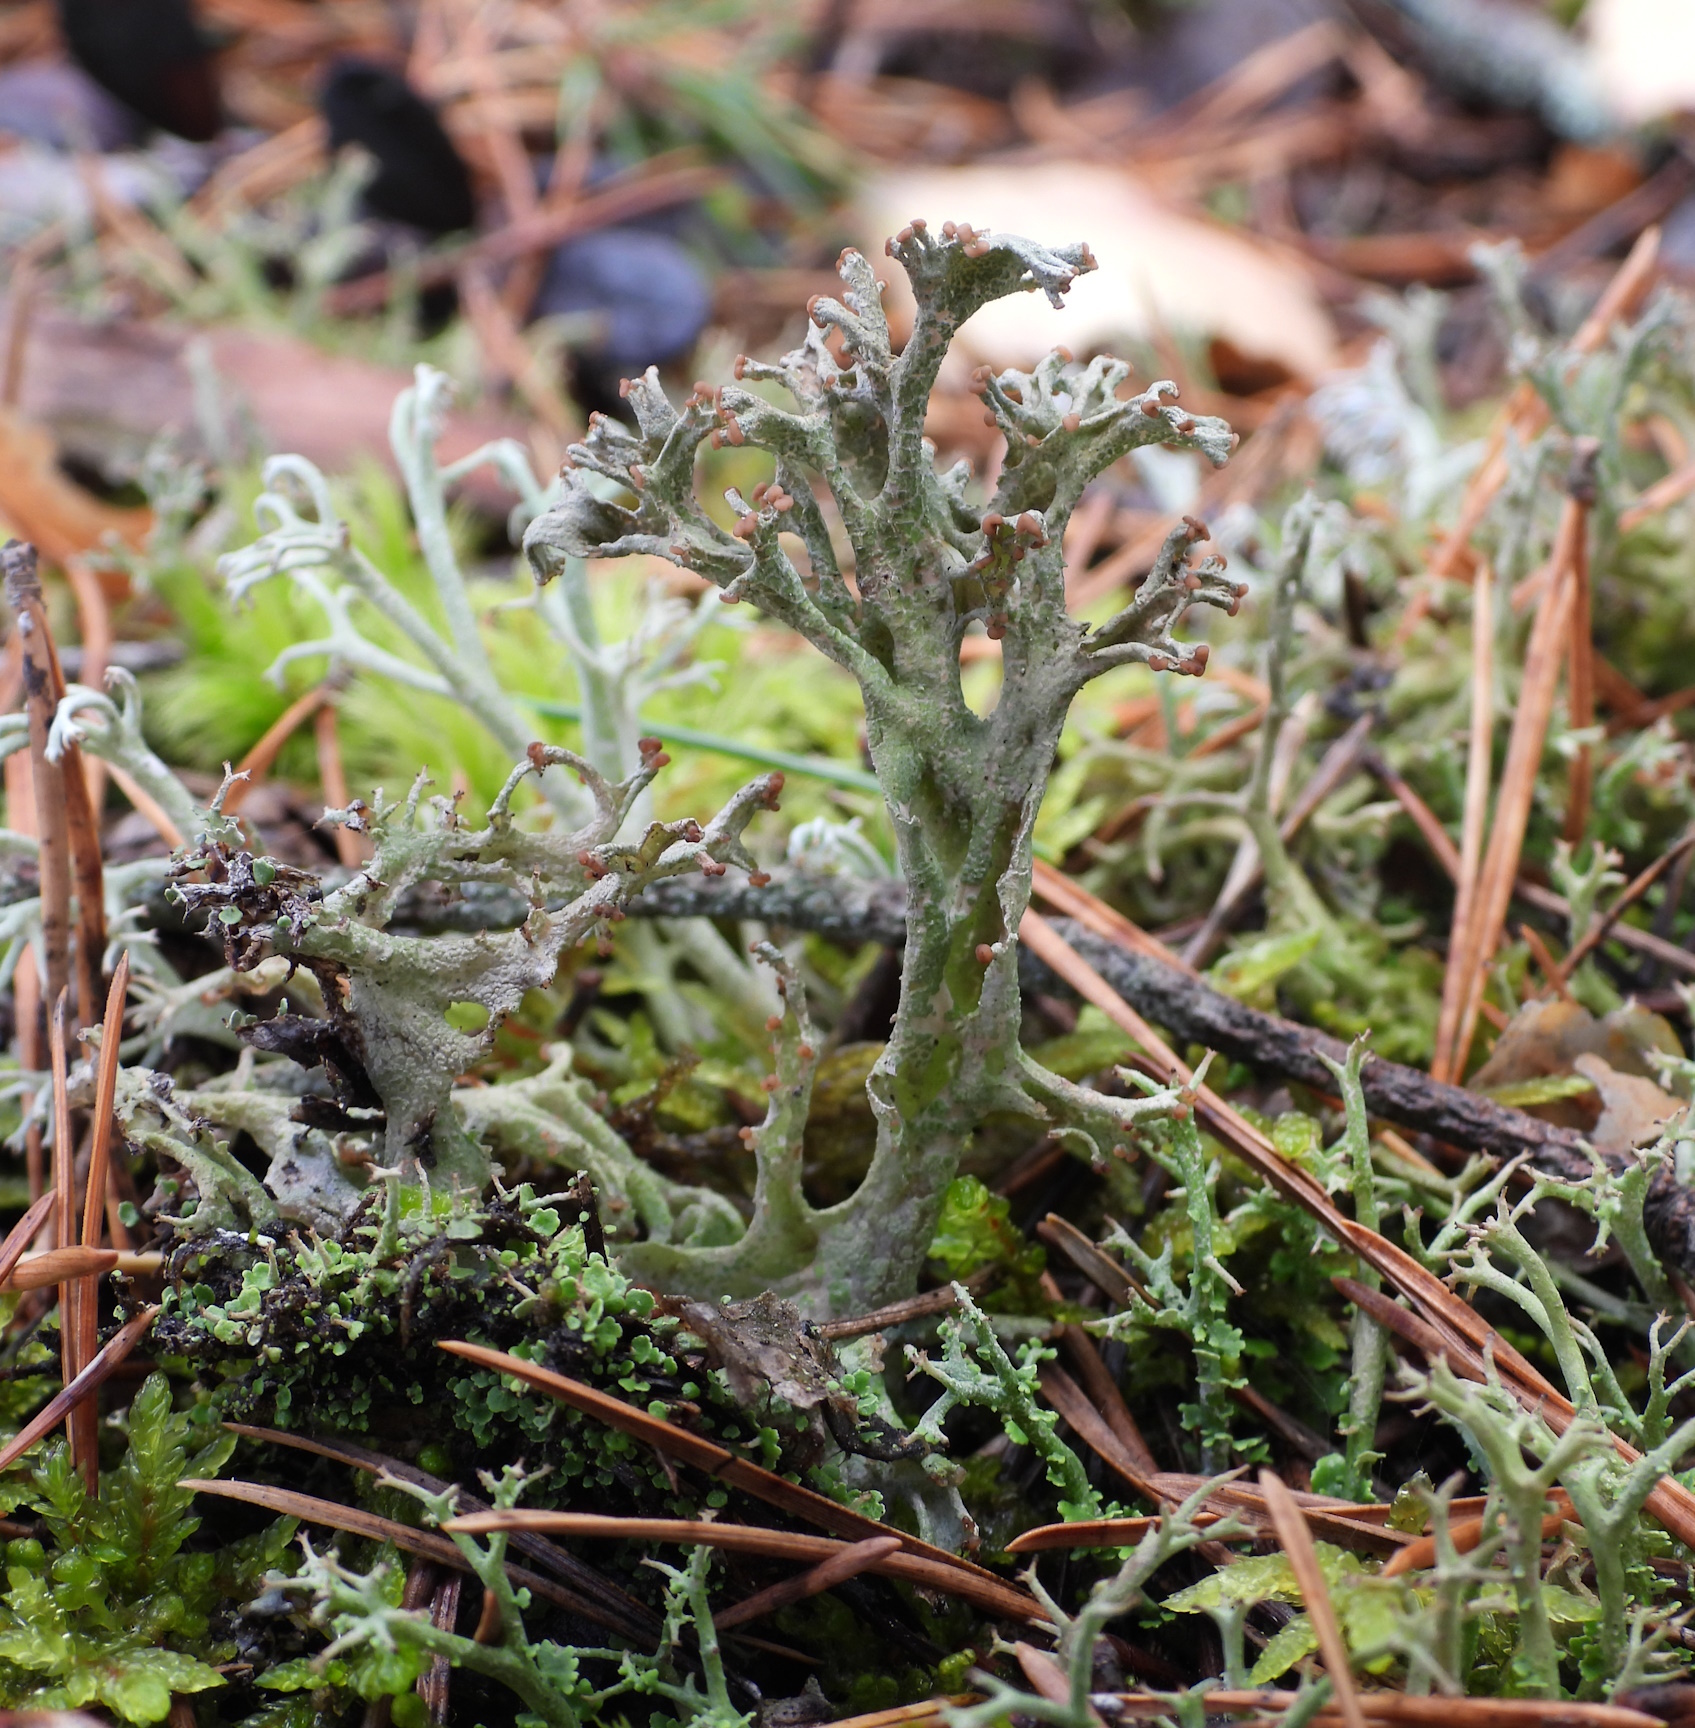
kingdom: Fungi
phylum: Ascomycota
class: Lecanoromycetes
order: Lecanorales
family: Cladoniaceae
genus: Cladonia
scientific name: Cladonia furcata
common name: Many-forked cladonia
